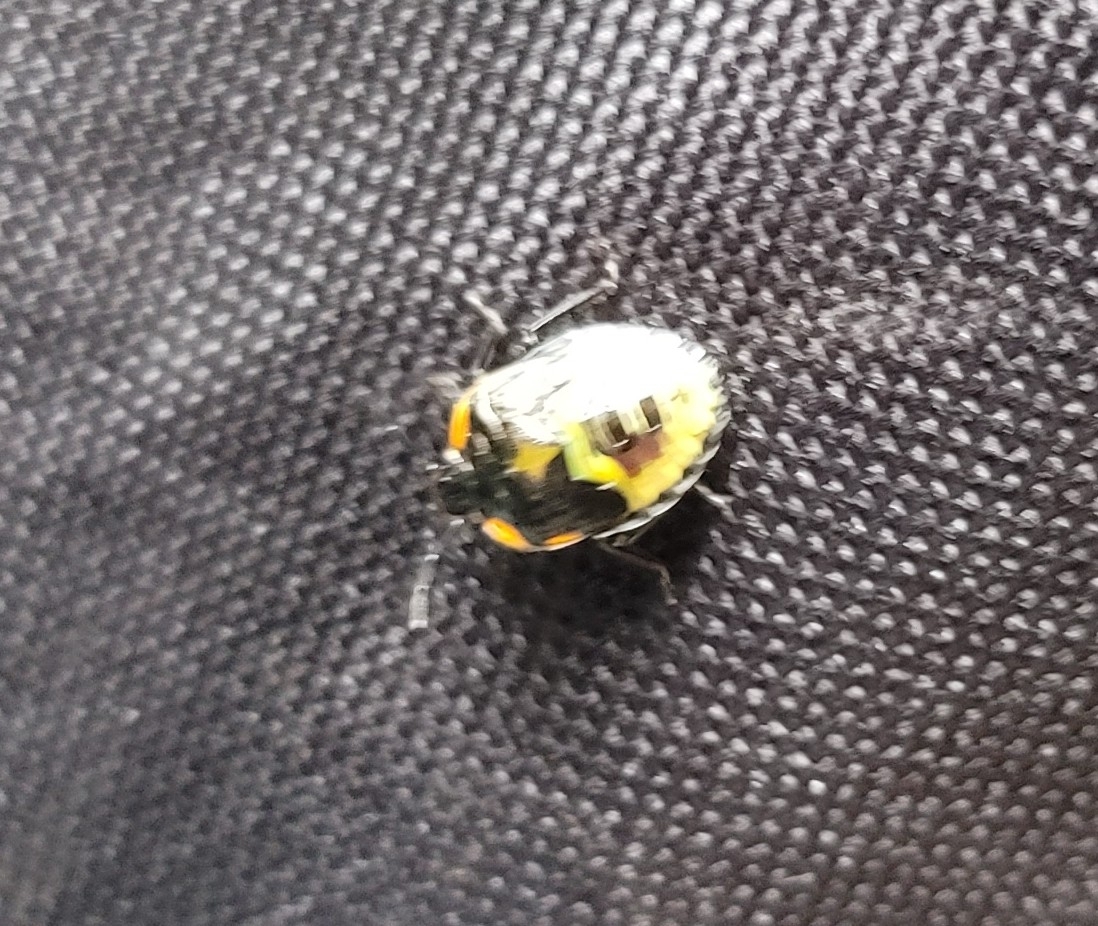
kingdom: Animalia
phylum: Arthropoda
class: Insecta
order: Hemiptera
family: Pentatomidae
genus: Chinavia
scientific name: Chinavia hilaris
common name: Green stink bug
